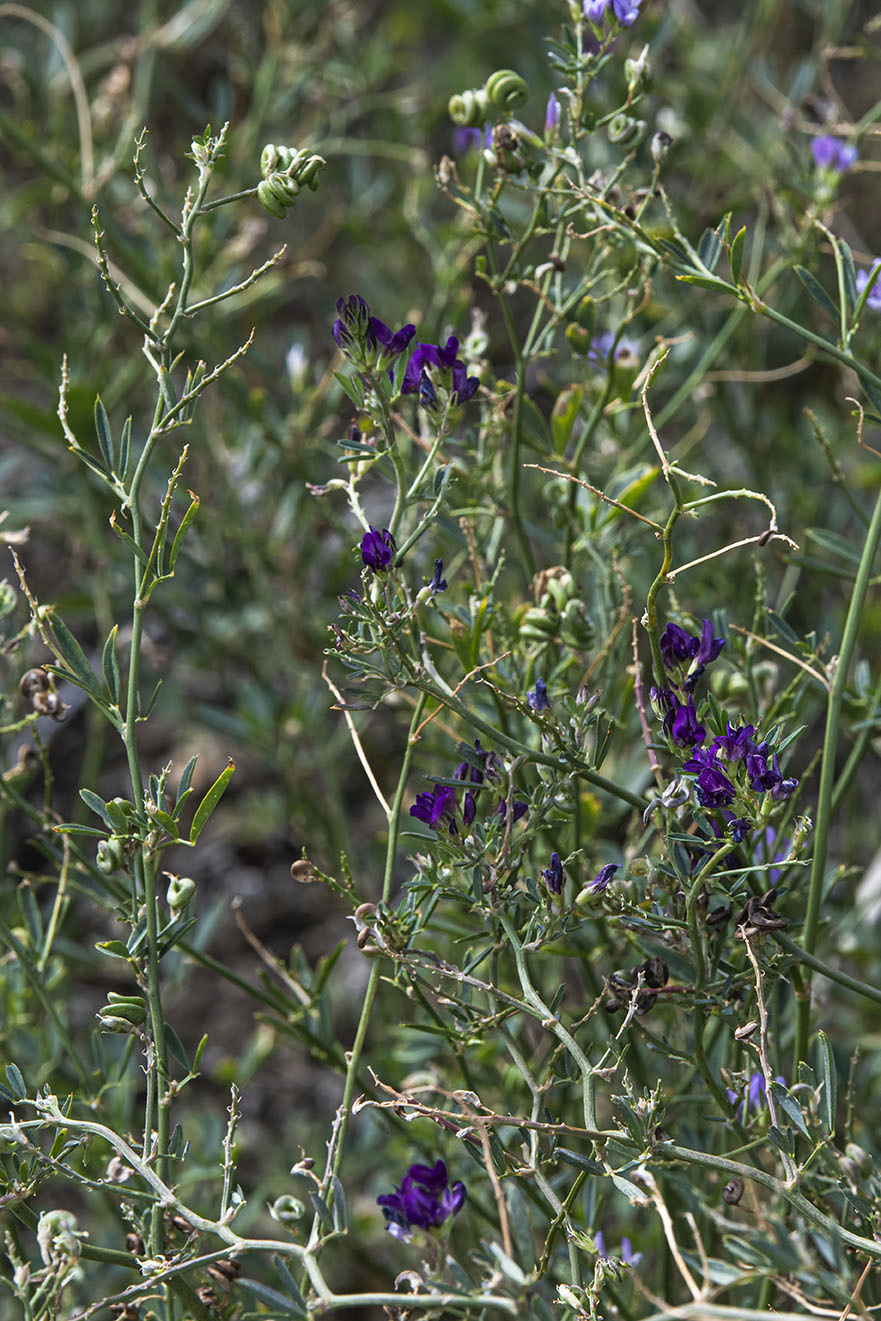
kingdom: Plantae
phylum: Tracheophyta
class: Magnoliopsida
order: Fabales
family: Fabaceae
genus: Medicago
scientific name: Medicago sativa
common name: Alfalfa
